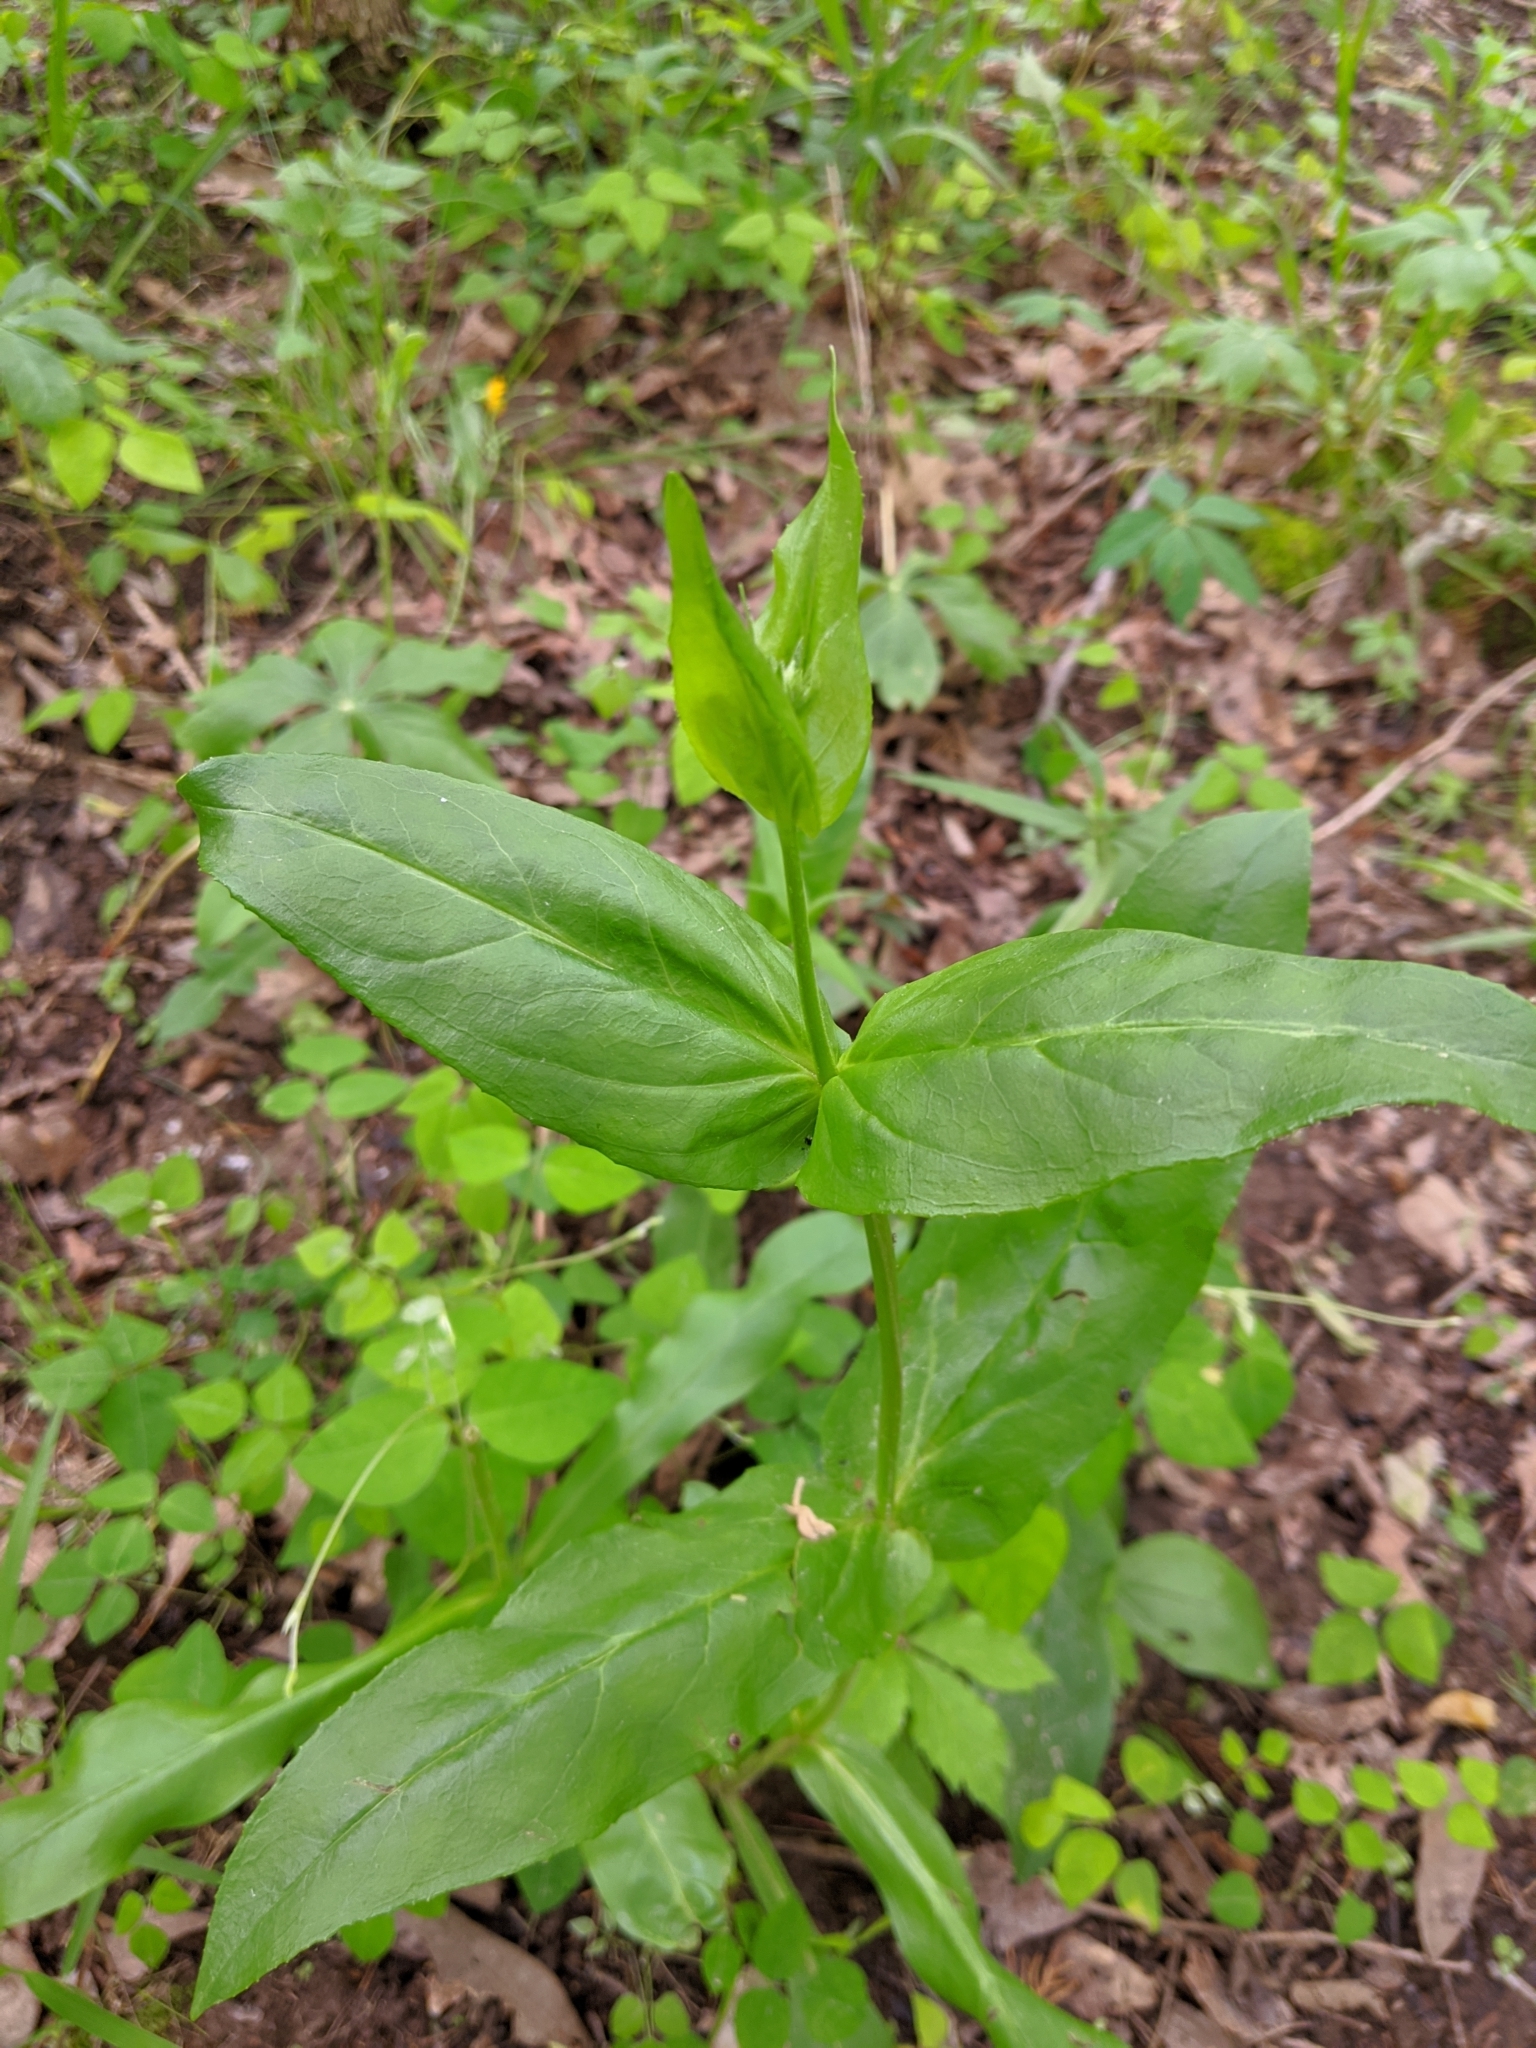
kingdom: Plantae
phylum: Tracheophyta
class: Magnoliopsida
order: Lamiales
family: Plantaginaceae
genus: Penstemon
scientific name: Penstemon digitalis
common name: Foxglove beardtongue
